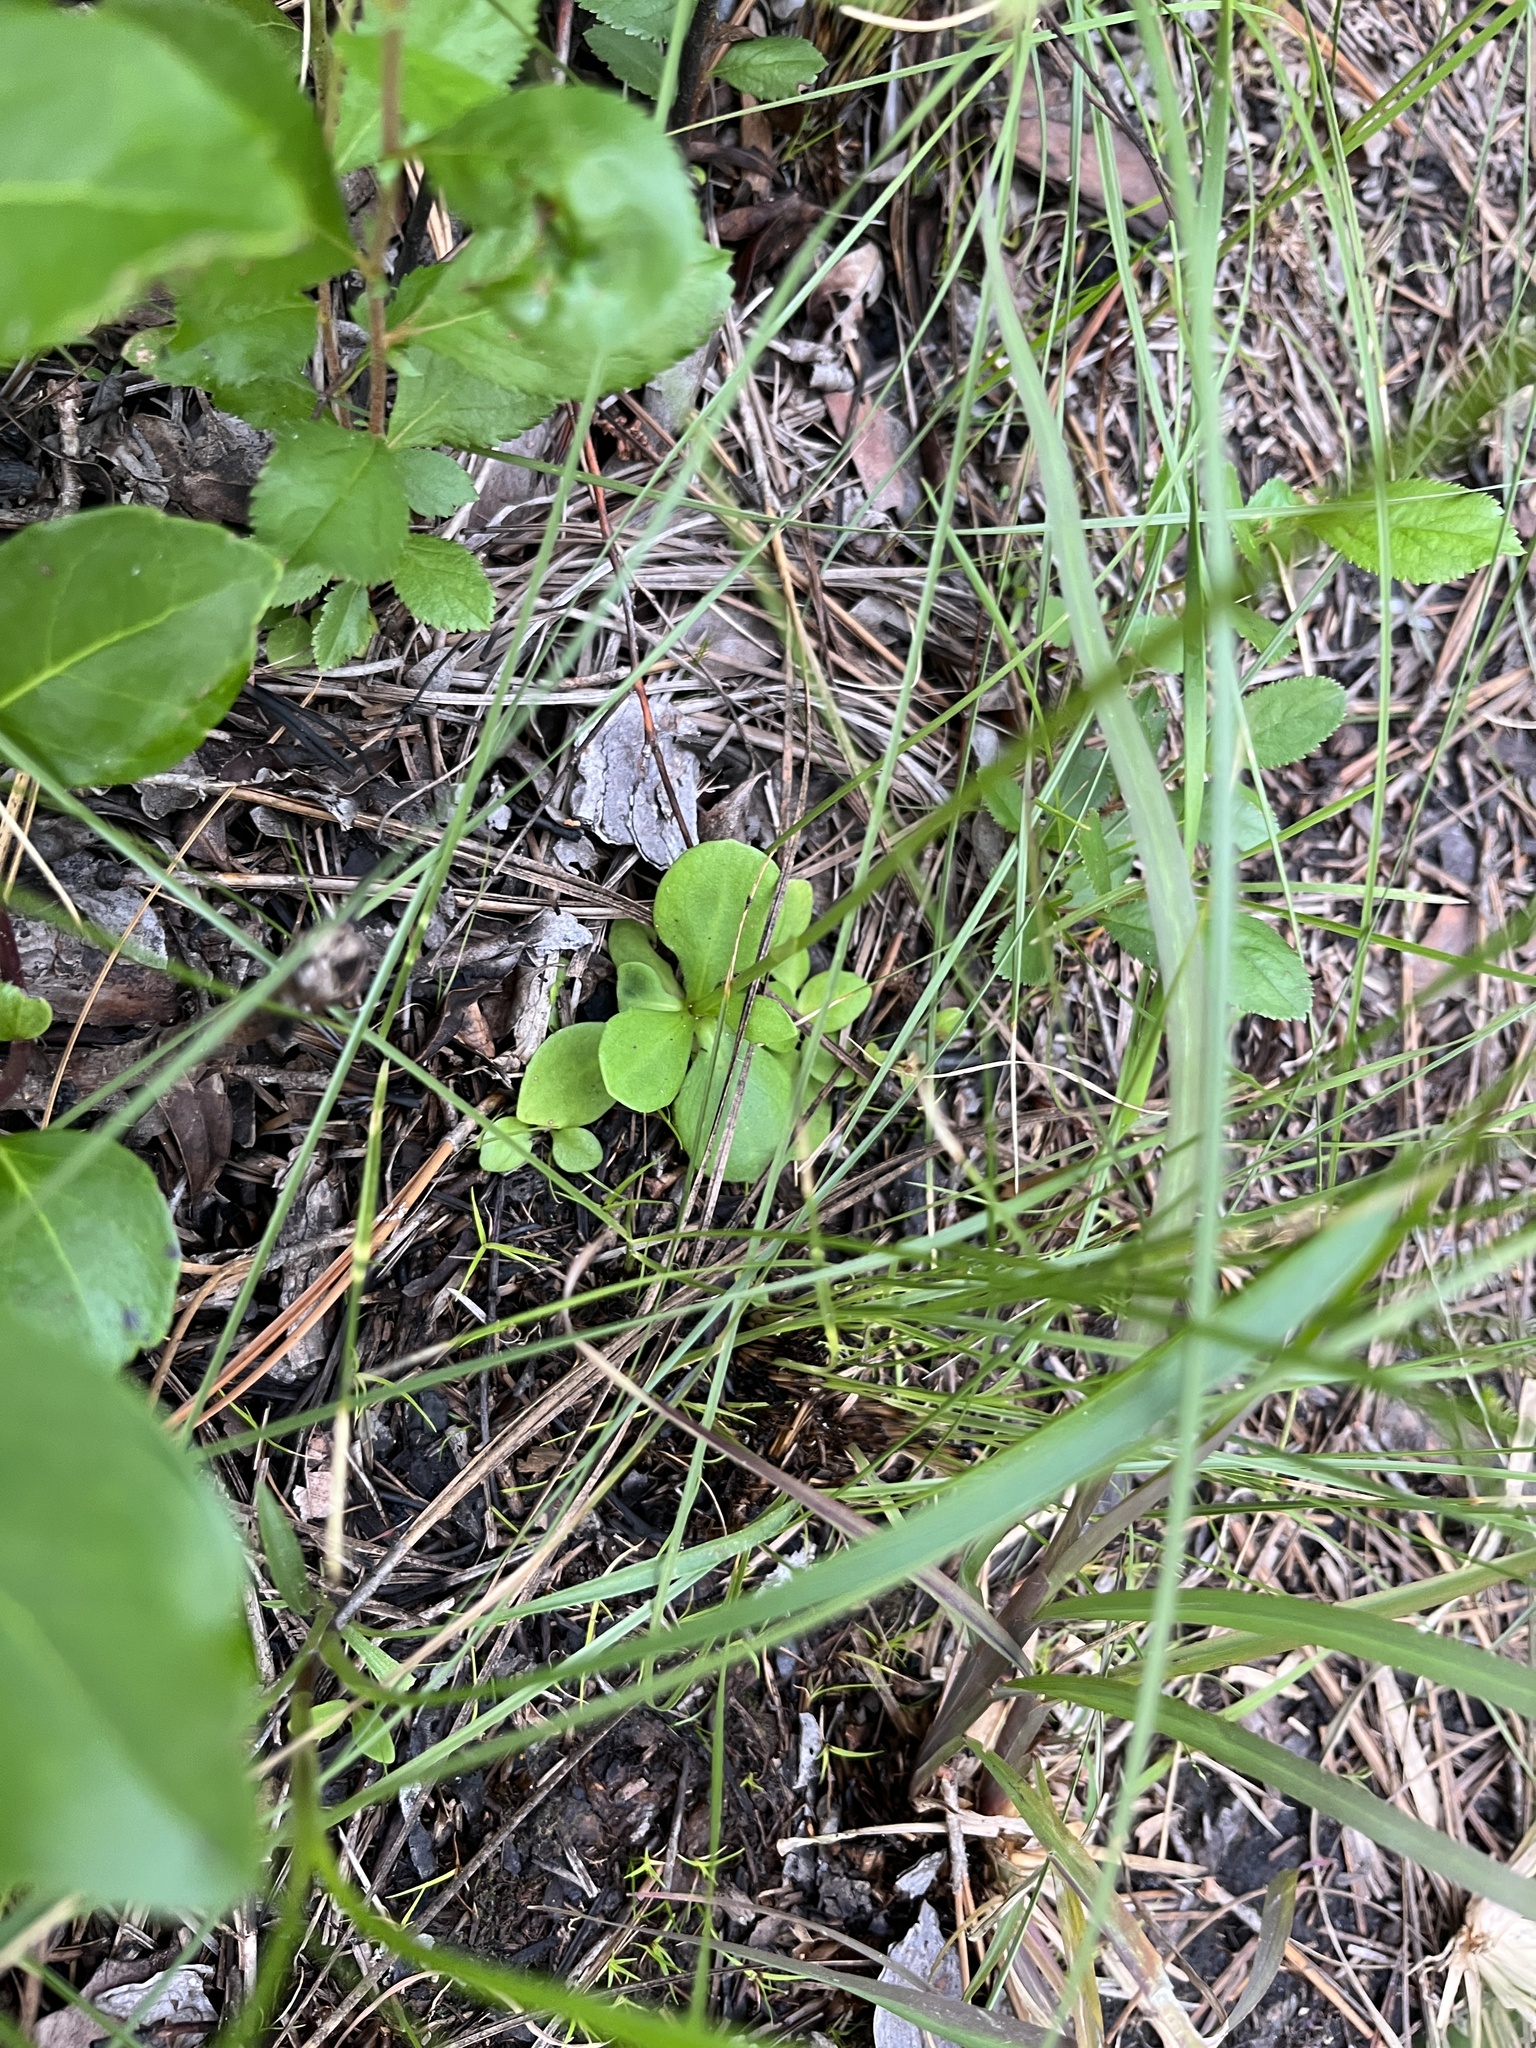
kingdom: Plantae
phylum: Tracheophyta
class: Magnoliopsida
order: Asterales
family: Asteraceae
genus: Erigeron
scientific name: Erigeron vernus
